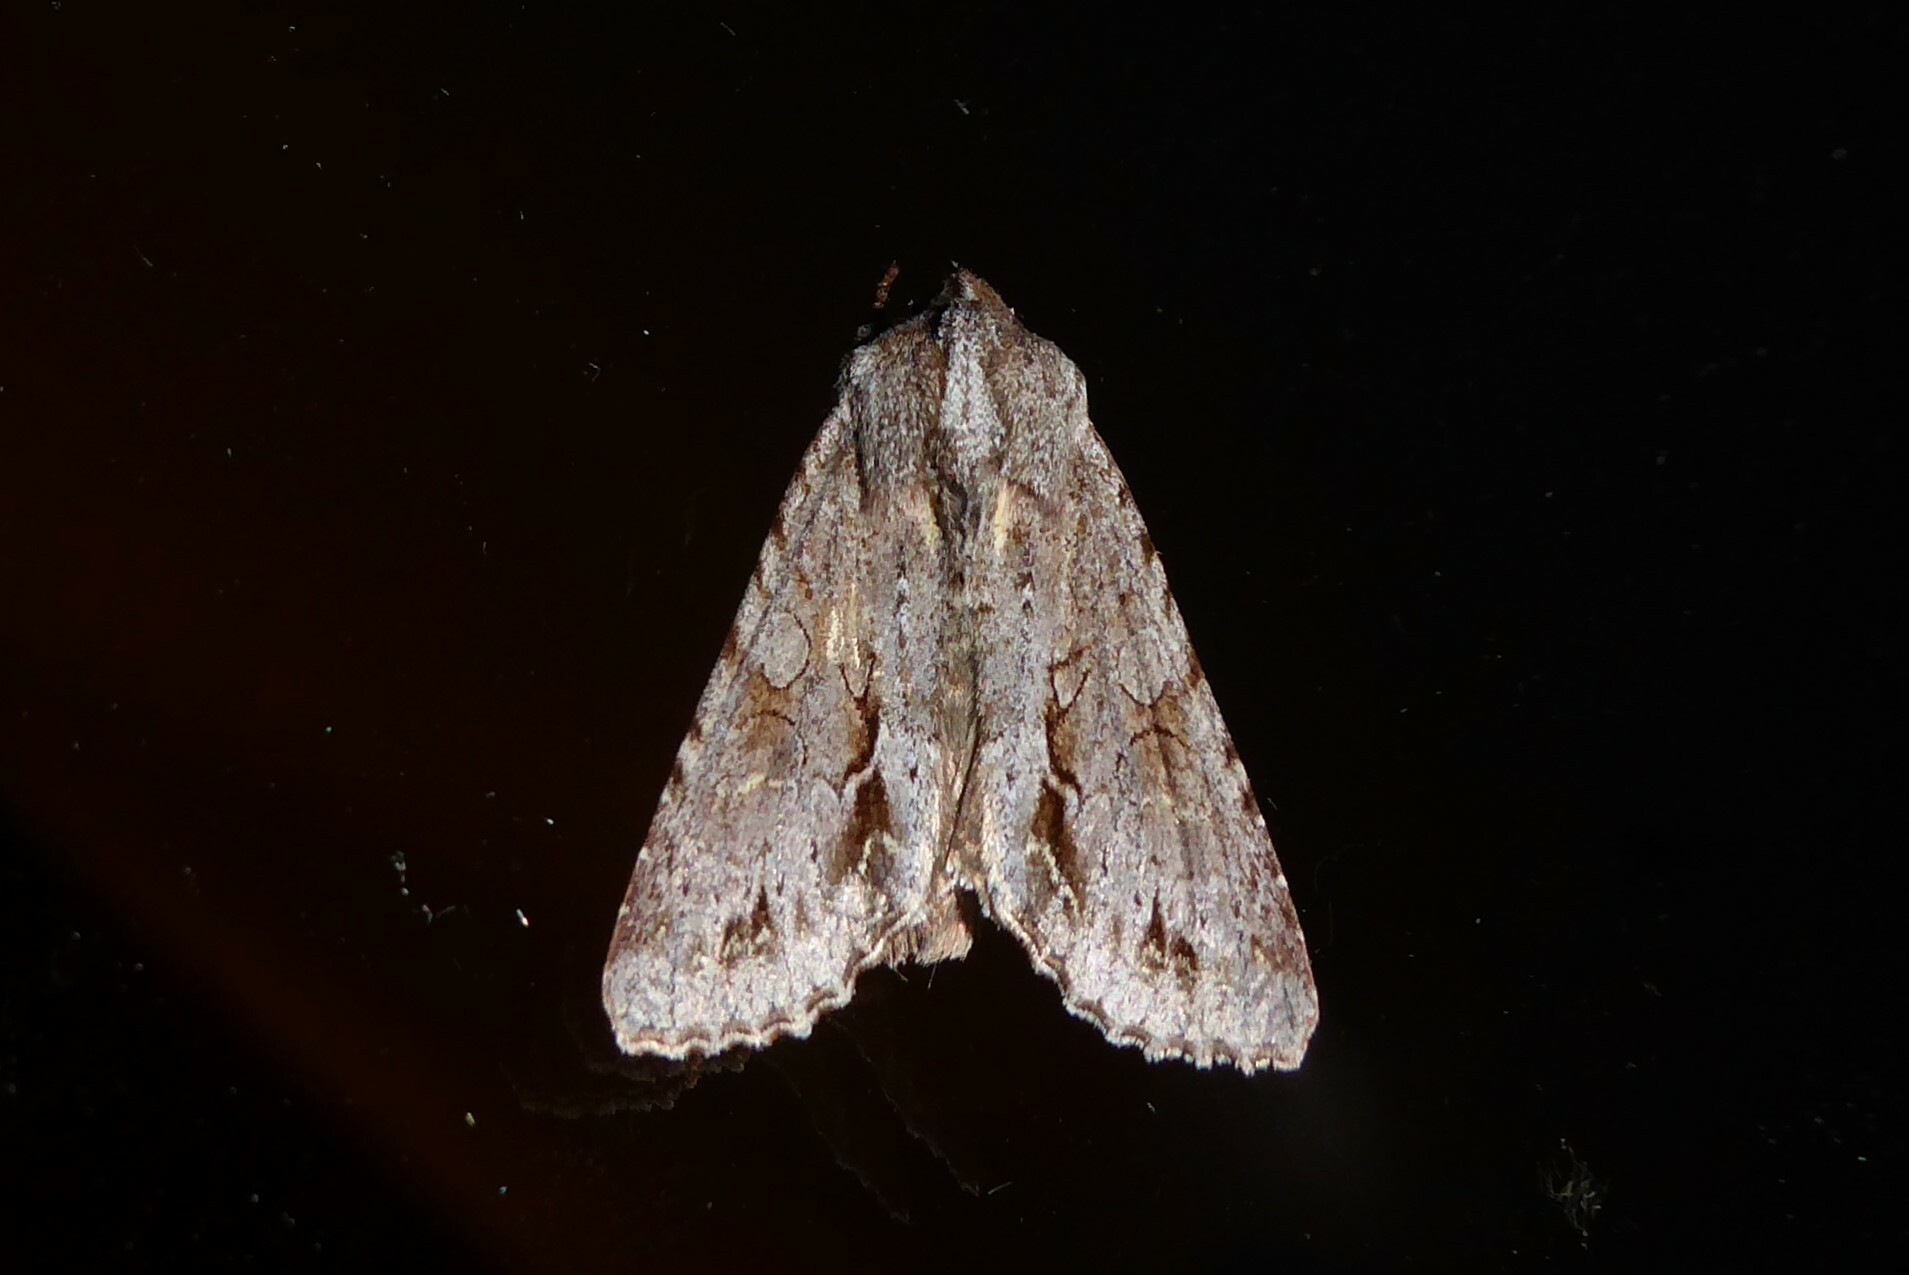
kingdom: Animalia
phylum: Arthropoda
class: Insecta
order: Lepidoptera
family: Noctuidae
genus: Ichneutica
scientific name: Ichneutica
